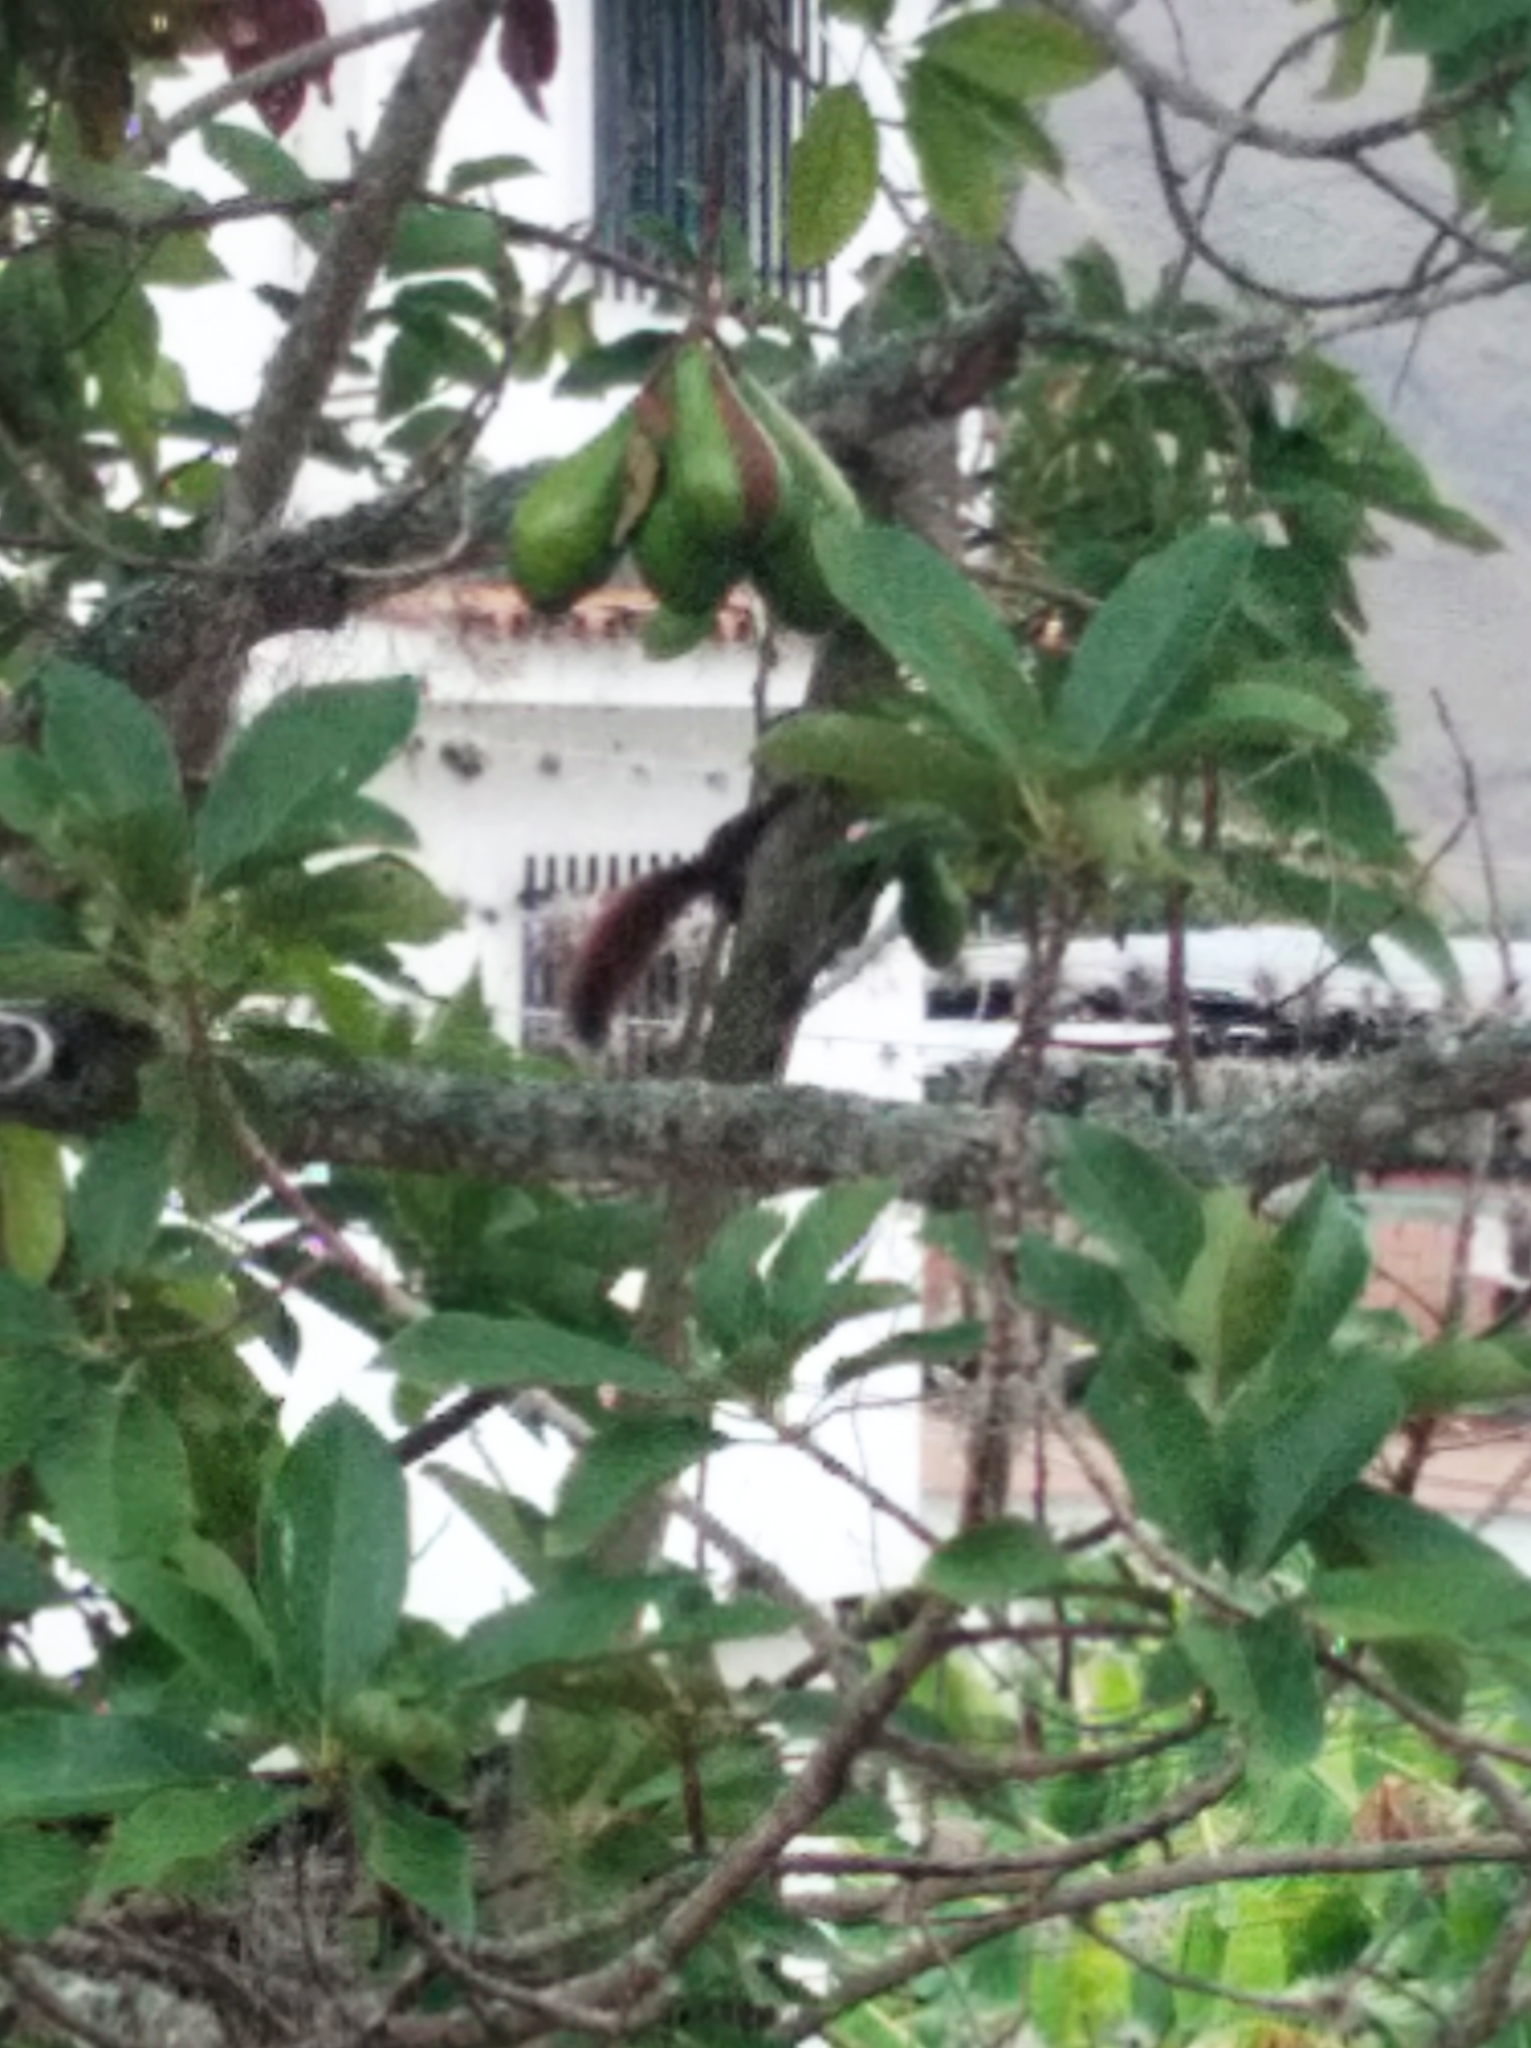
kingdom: Animalia
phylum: Chordata
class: Mammalia
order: Rodentia
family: Sciuridae
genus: Sciurus
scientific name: Sciurus granatensis
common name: Red-tailed squirrel
